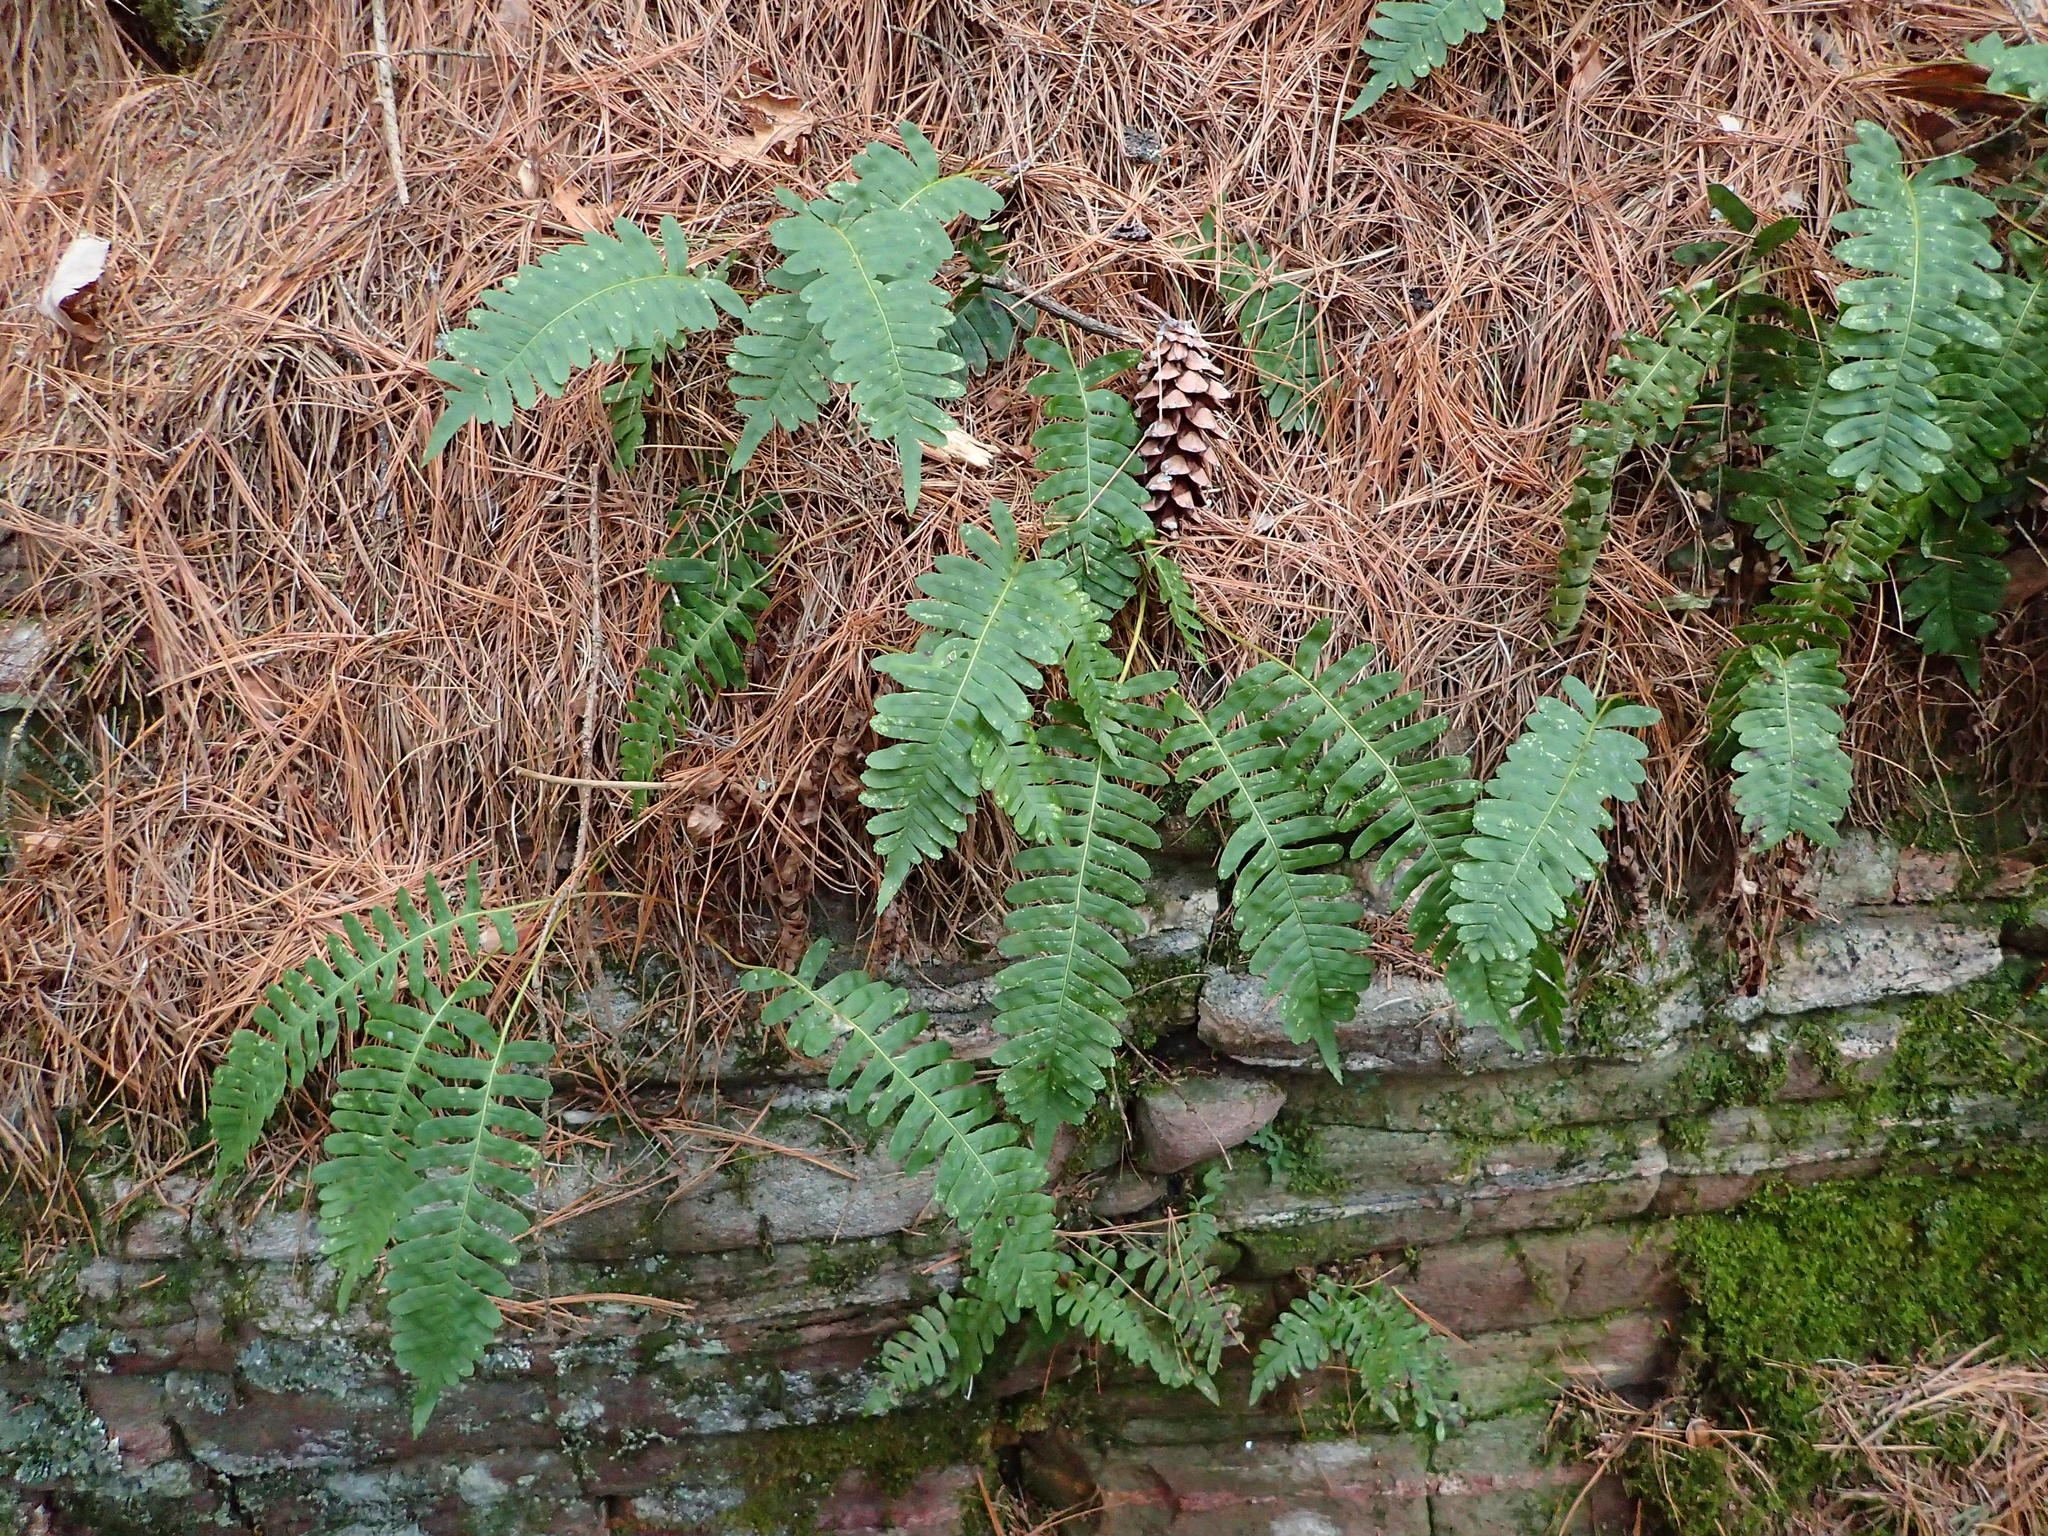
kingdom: Plantae
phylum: Tracheophyta
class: Polypodiopsida
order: Polypodiales
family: Polypodiaceae
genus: Polypodium
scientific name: Polypodium virginianum
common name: American wall fern
